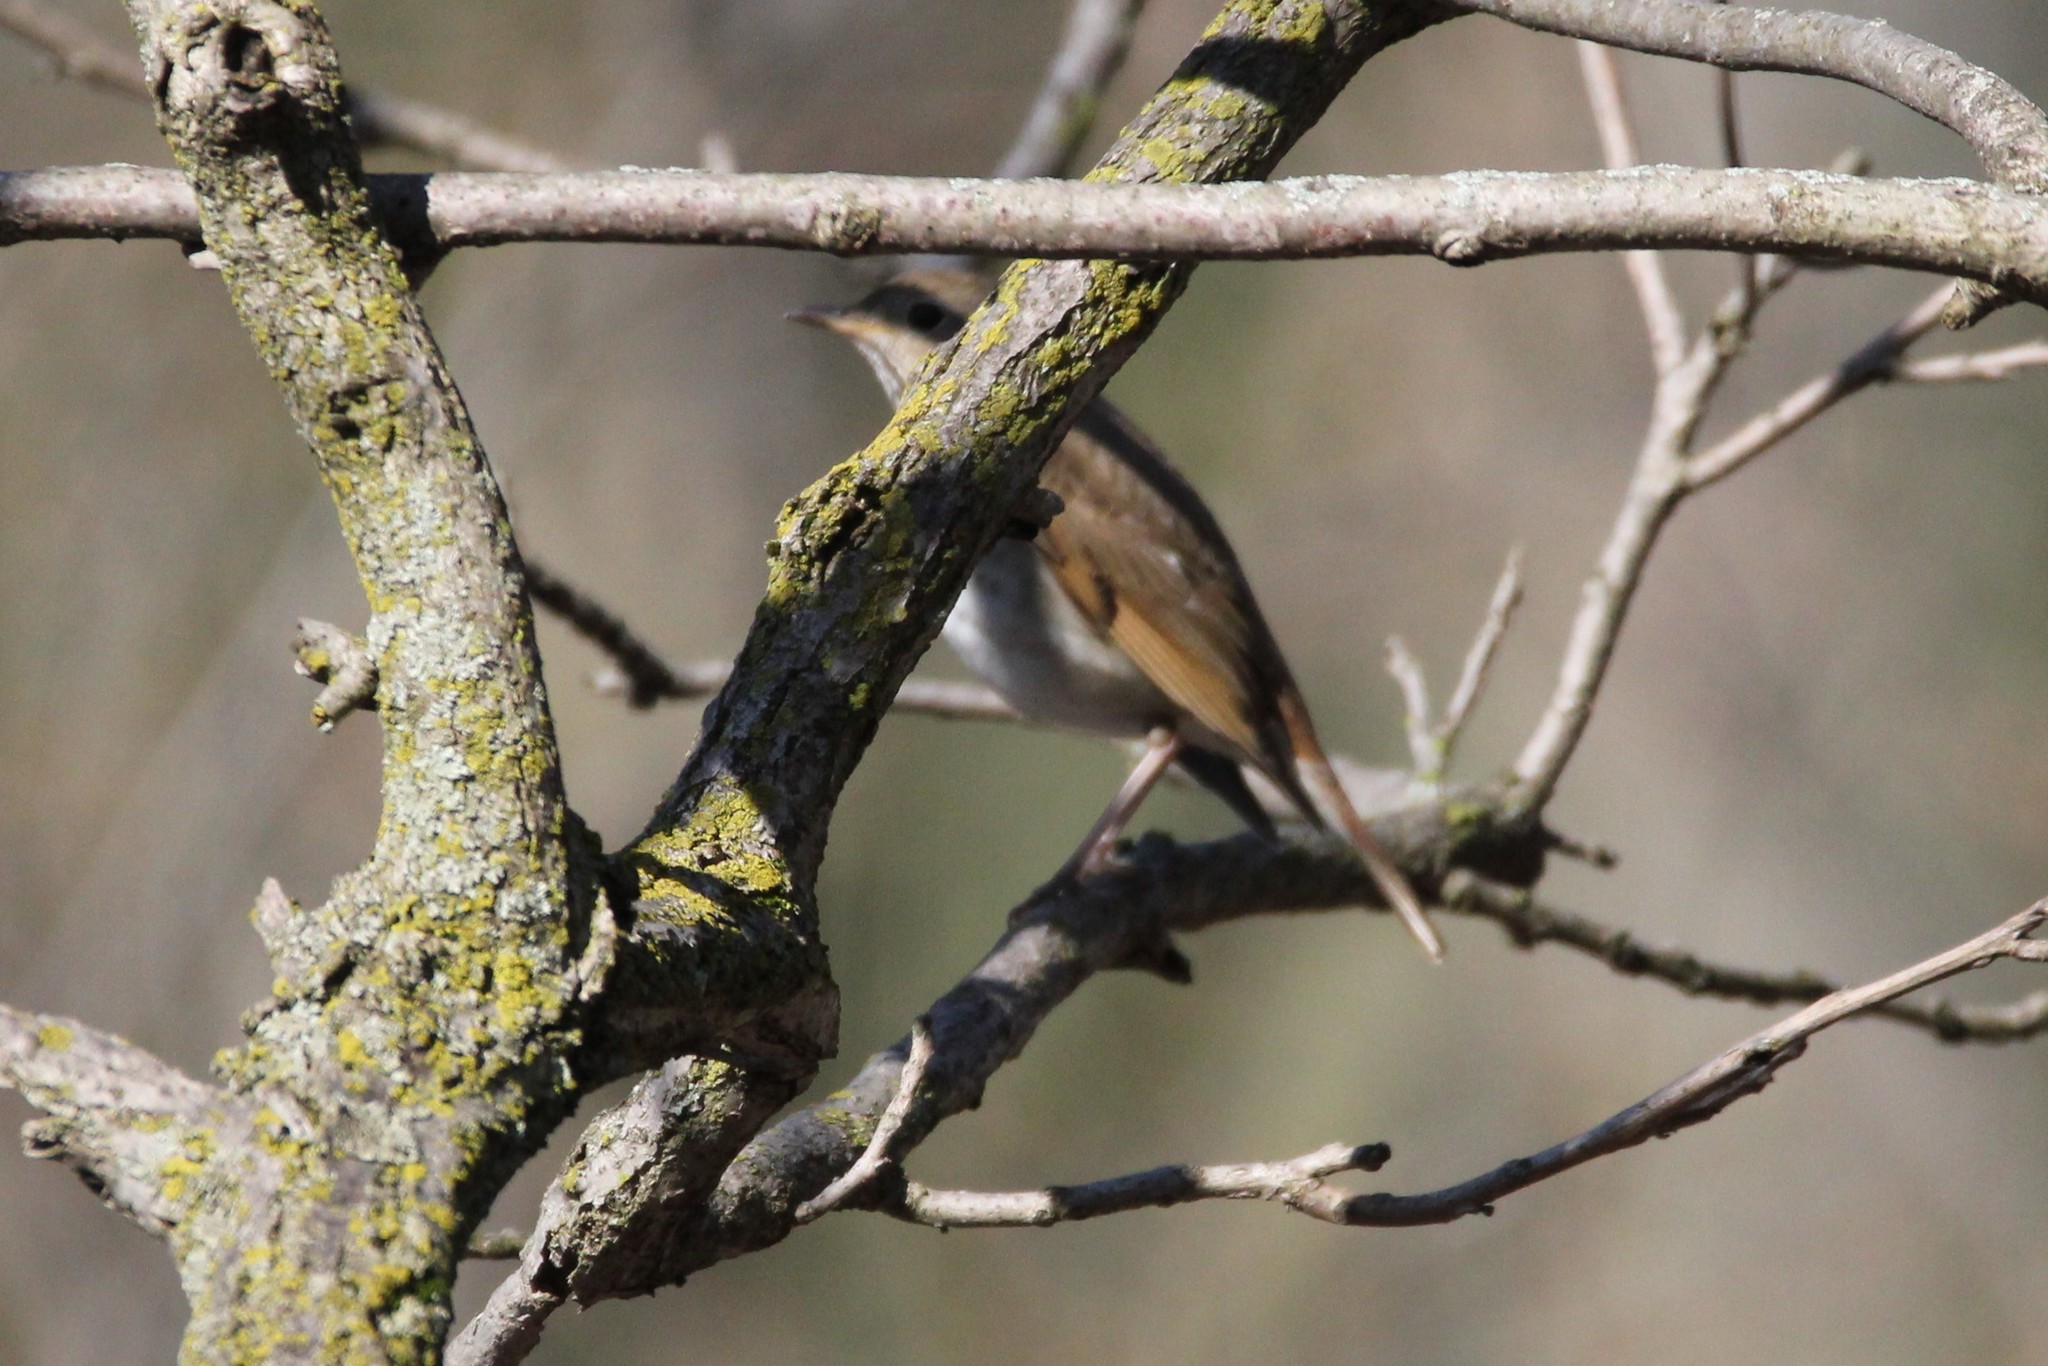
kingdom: Animalia
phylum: Chordata
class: Aves
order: Passeriformes
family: Turdidae
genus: Catharus
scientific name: Catharus guttatus
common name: Hermit thrush
